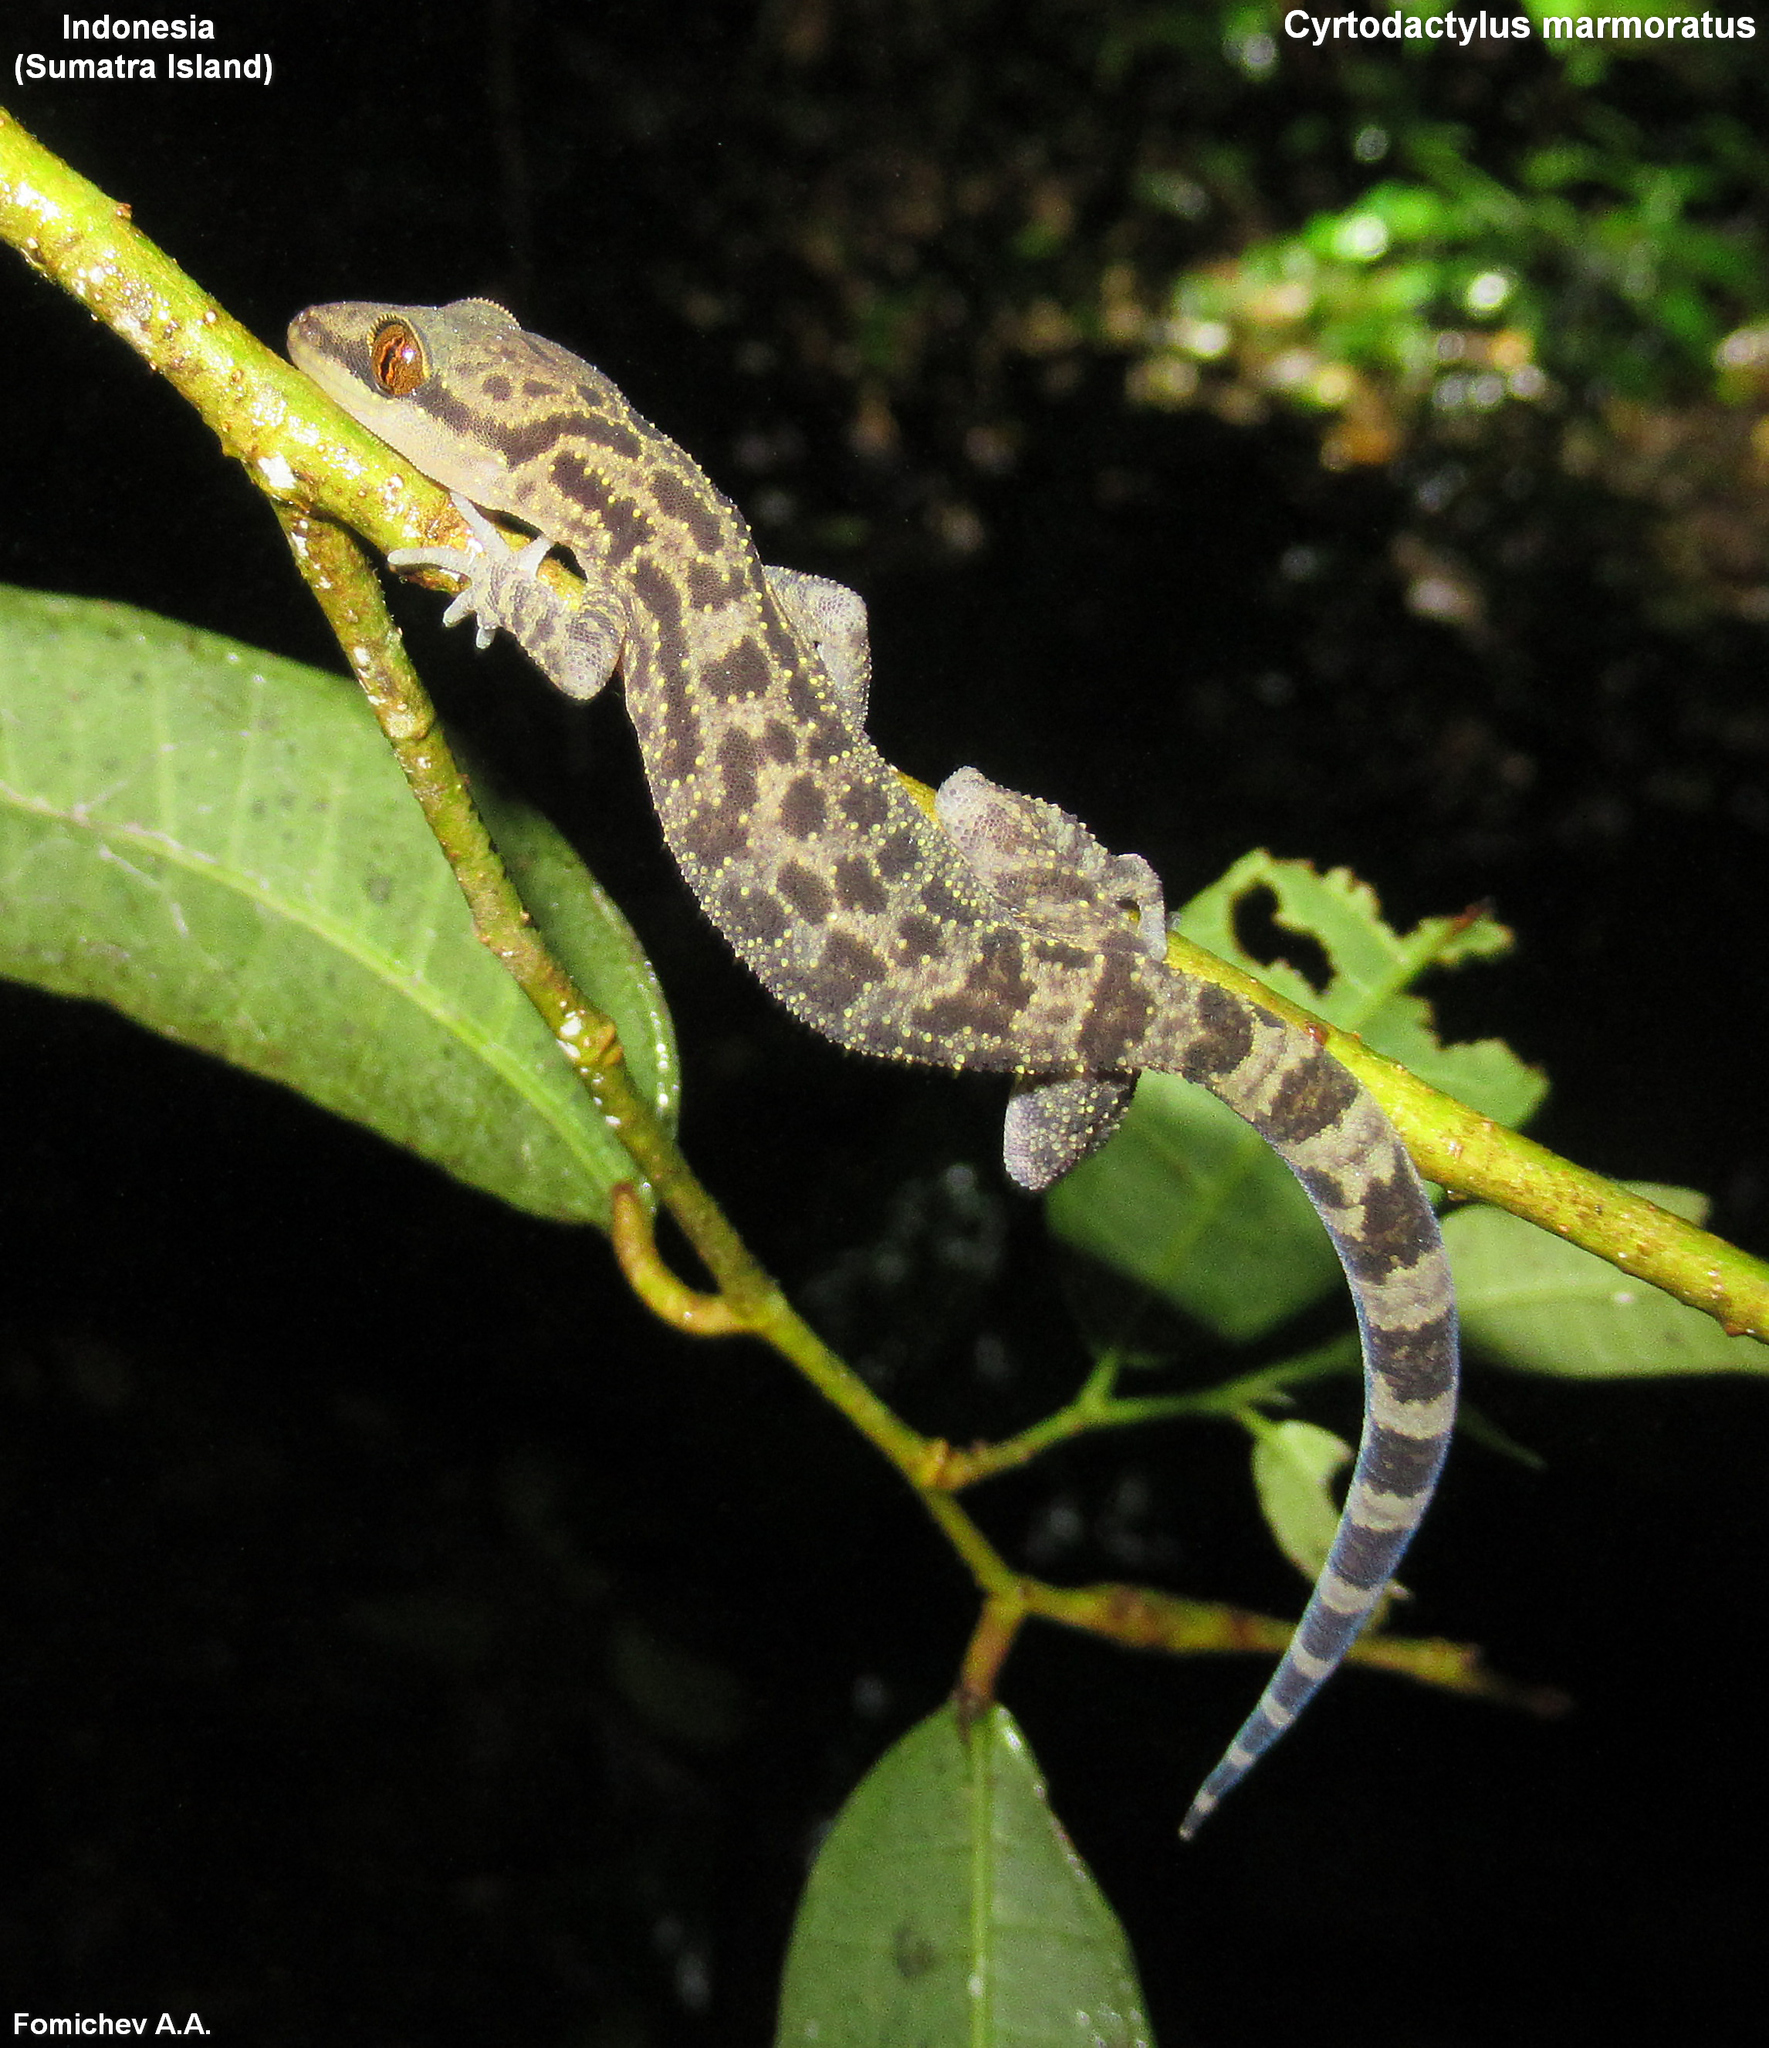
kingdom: Animalia
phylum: Chordata
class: Squamata
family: Gekkonidae
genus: Cyrtodactylus
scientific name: Cyrtodactylus marmoratus
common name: Marbled bow-fingered gecko
